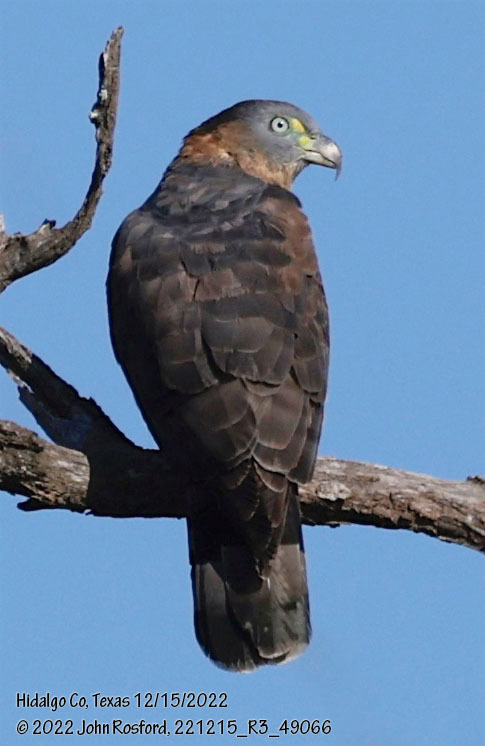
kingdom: Animalia
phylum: Chordata
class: Aves
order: Accipitriformes
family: Accipitridae
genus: Chondrohierax
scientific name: Chondrohierax uncinatus
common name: Hook-billed kite
